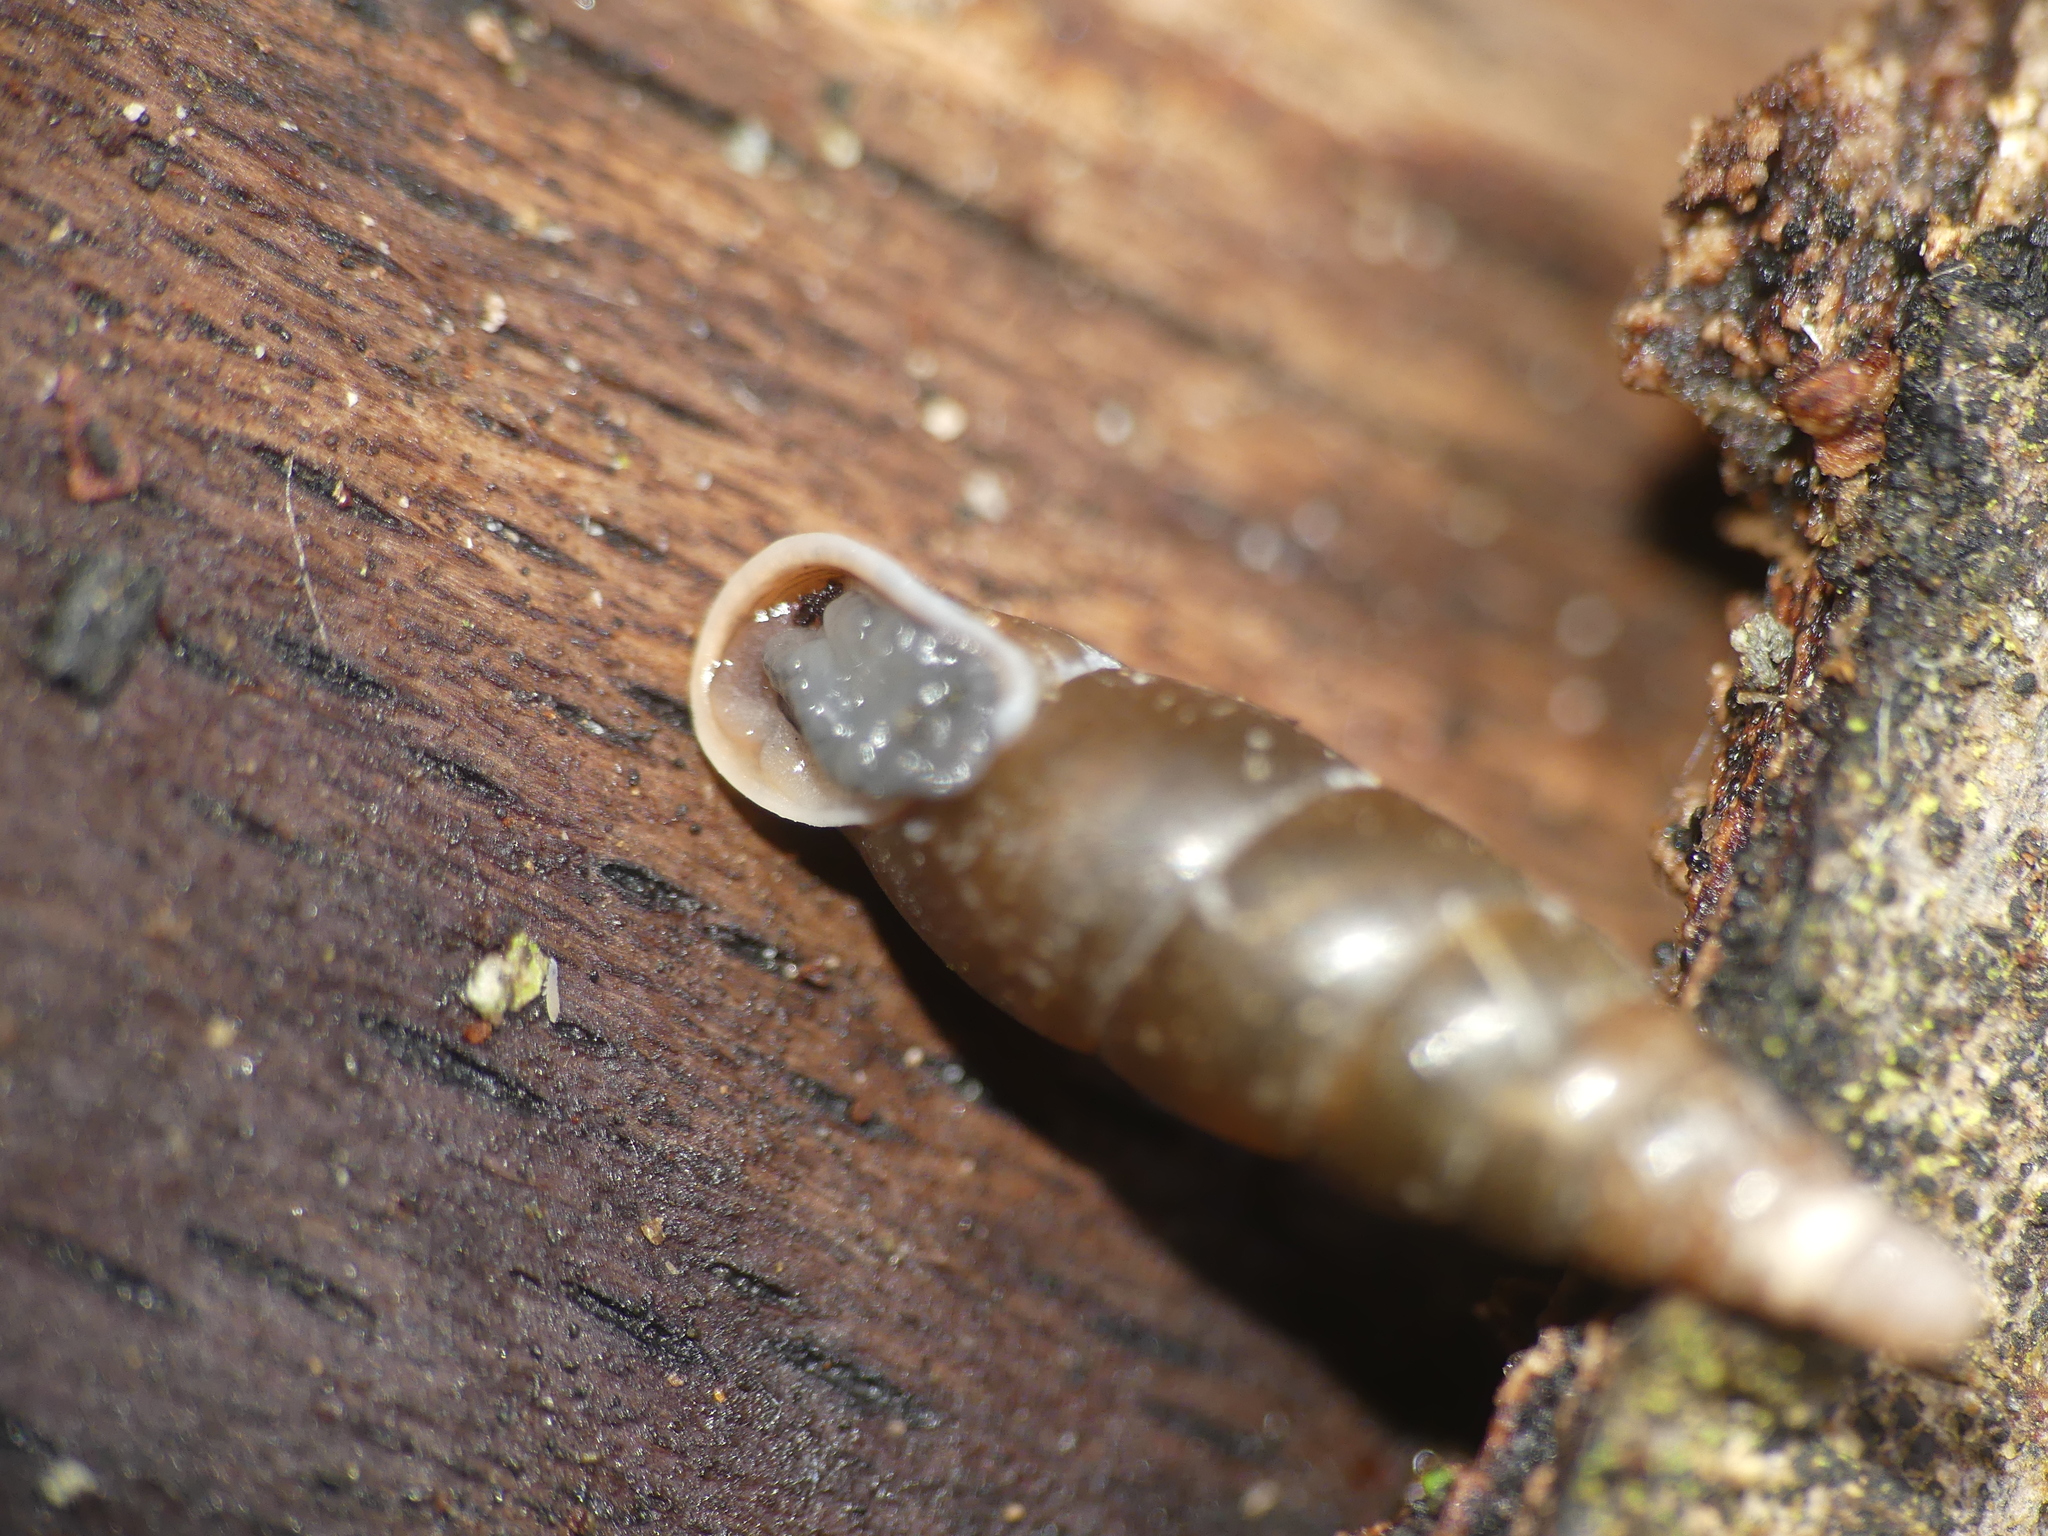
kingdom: Animalia
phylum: Mollusca
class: Gastropoda
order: Stylommatophora
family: Clausiliidae
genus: Cochlodina
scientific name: Cochlodina laminata
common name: Plaited door snail
